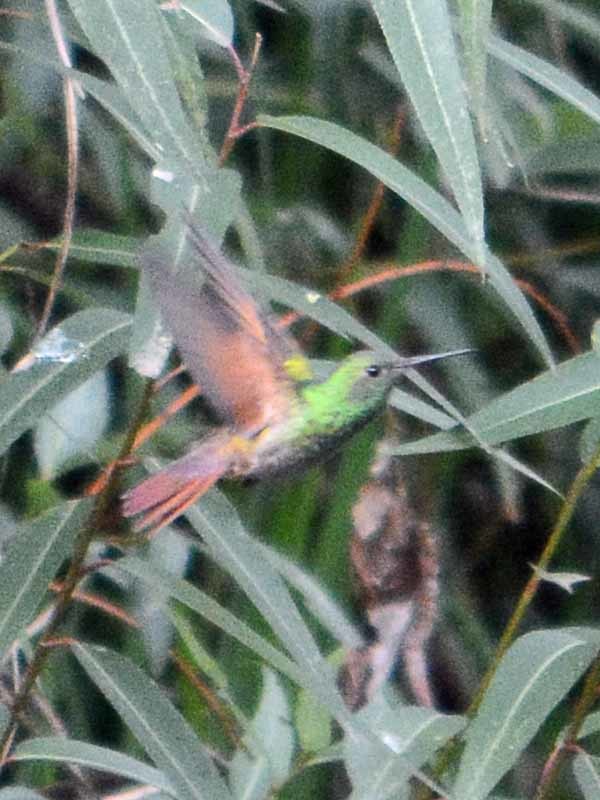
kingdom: Animalia
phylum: Chordata
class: Aves
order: Apodiformes
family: Trochilidae
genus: Saucerottia
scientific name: Saucerottia beryllina
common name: Berylline hummingbird
